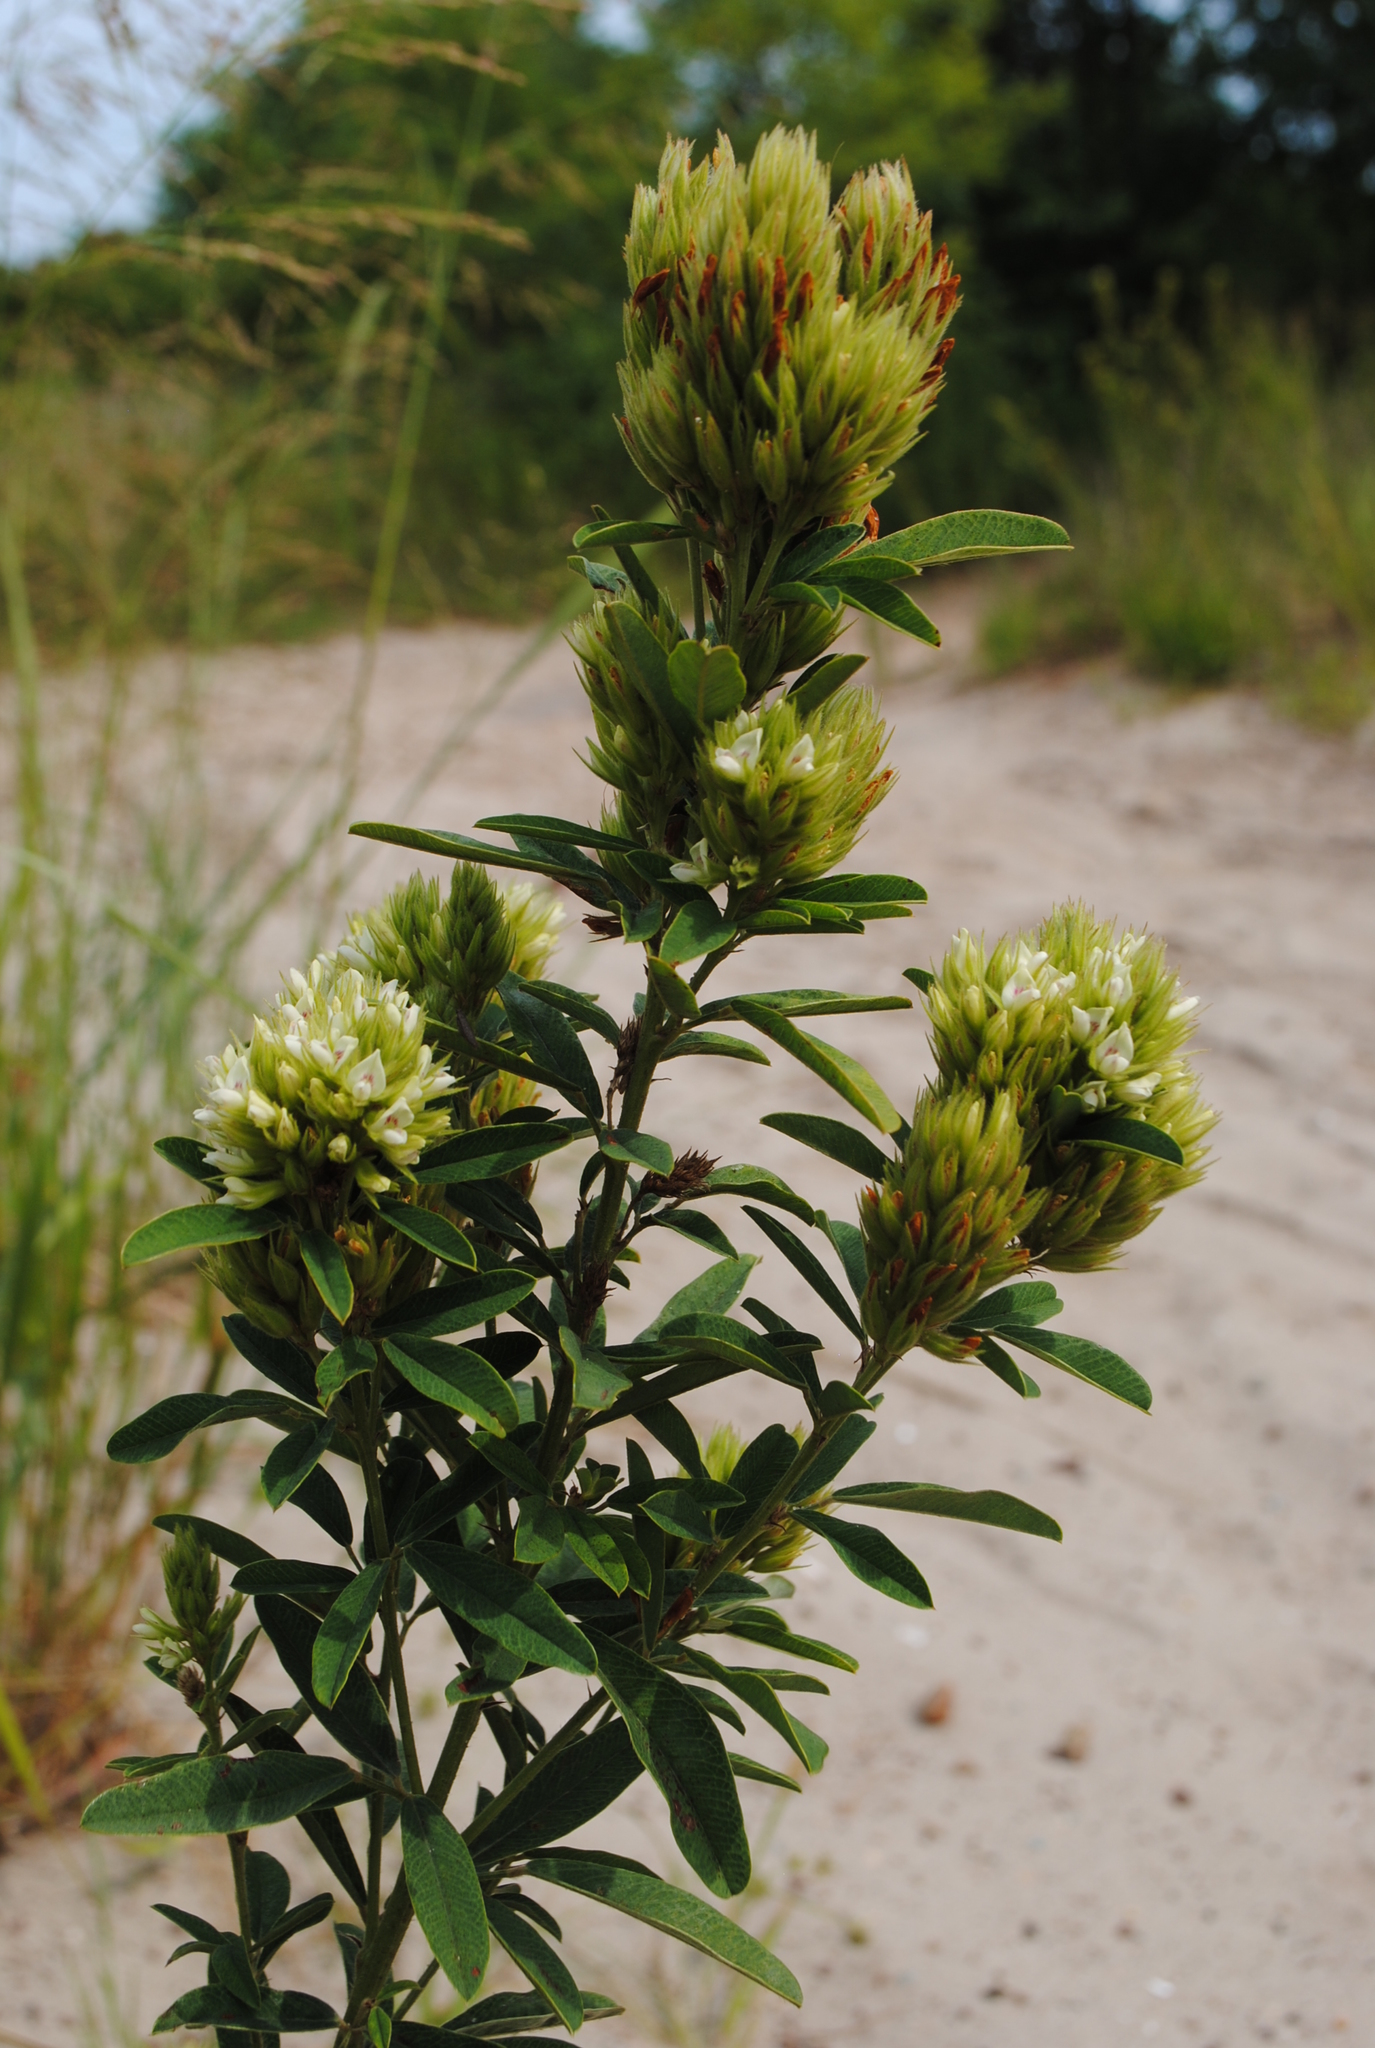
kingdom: Plantae
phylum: Tracheophyta
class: Magnoliopsida
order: Fabales
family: Fabaceae
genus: Lespedeza
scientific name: Lespedeza capitata
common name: Dusty clover
